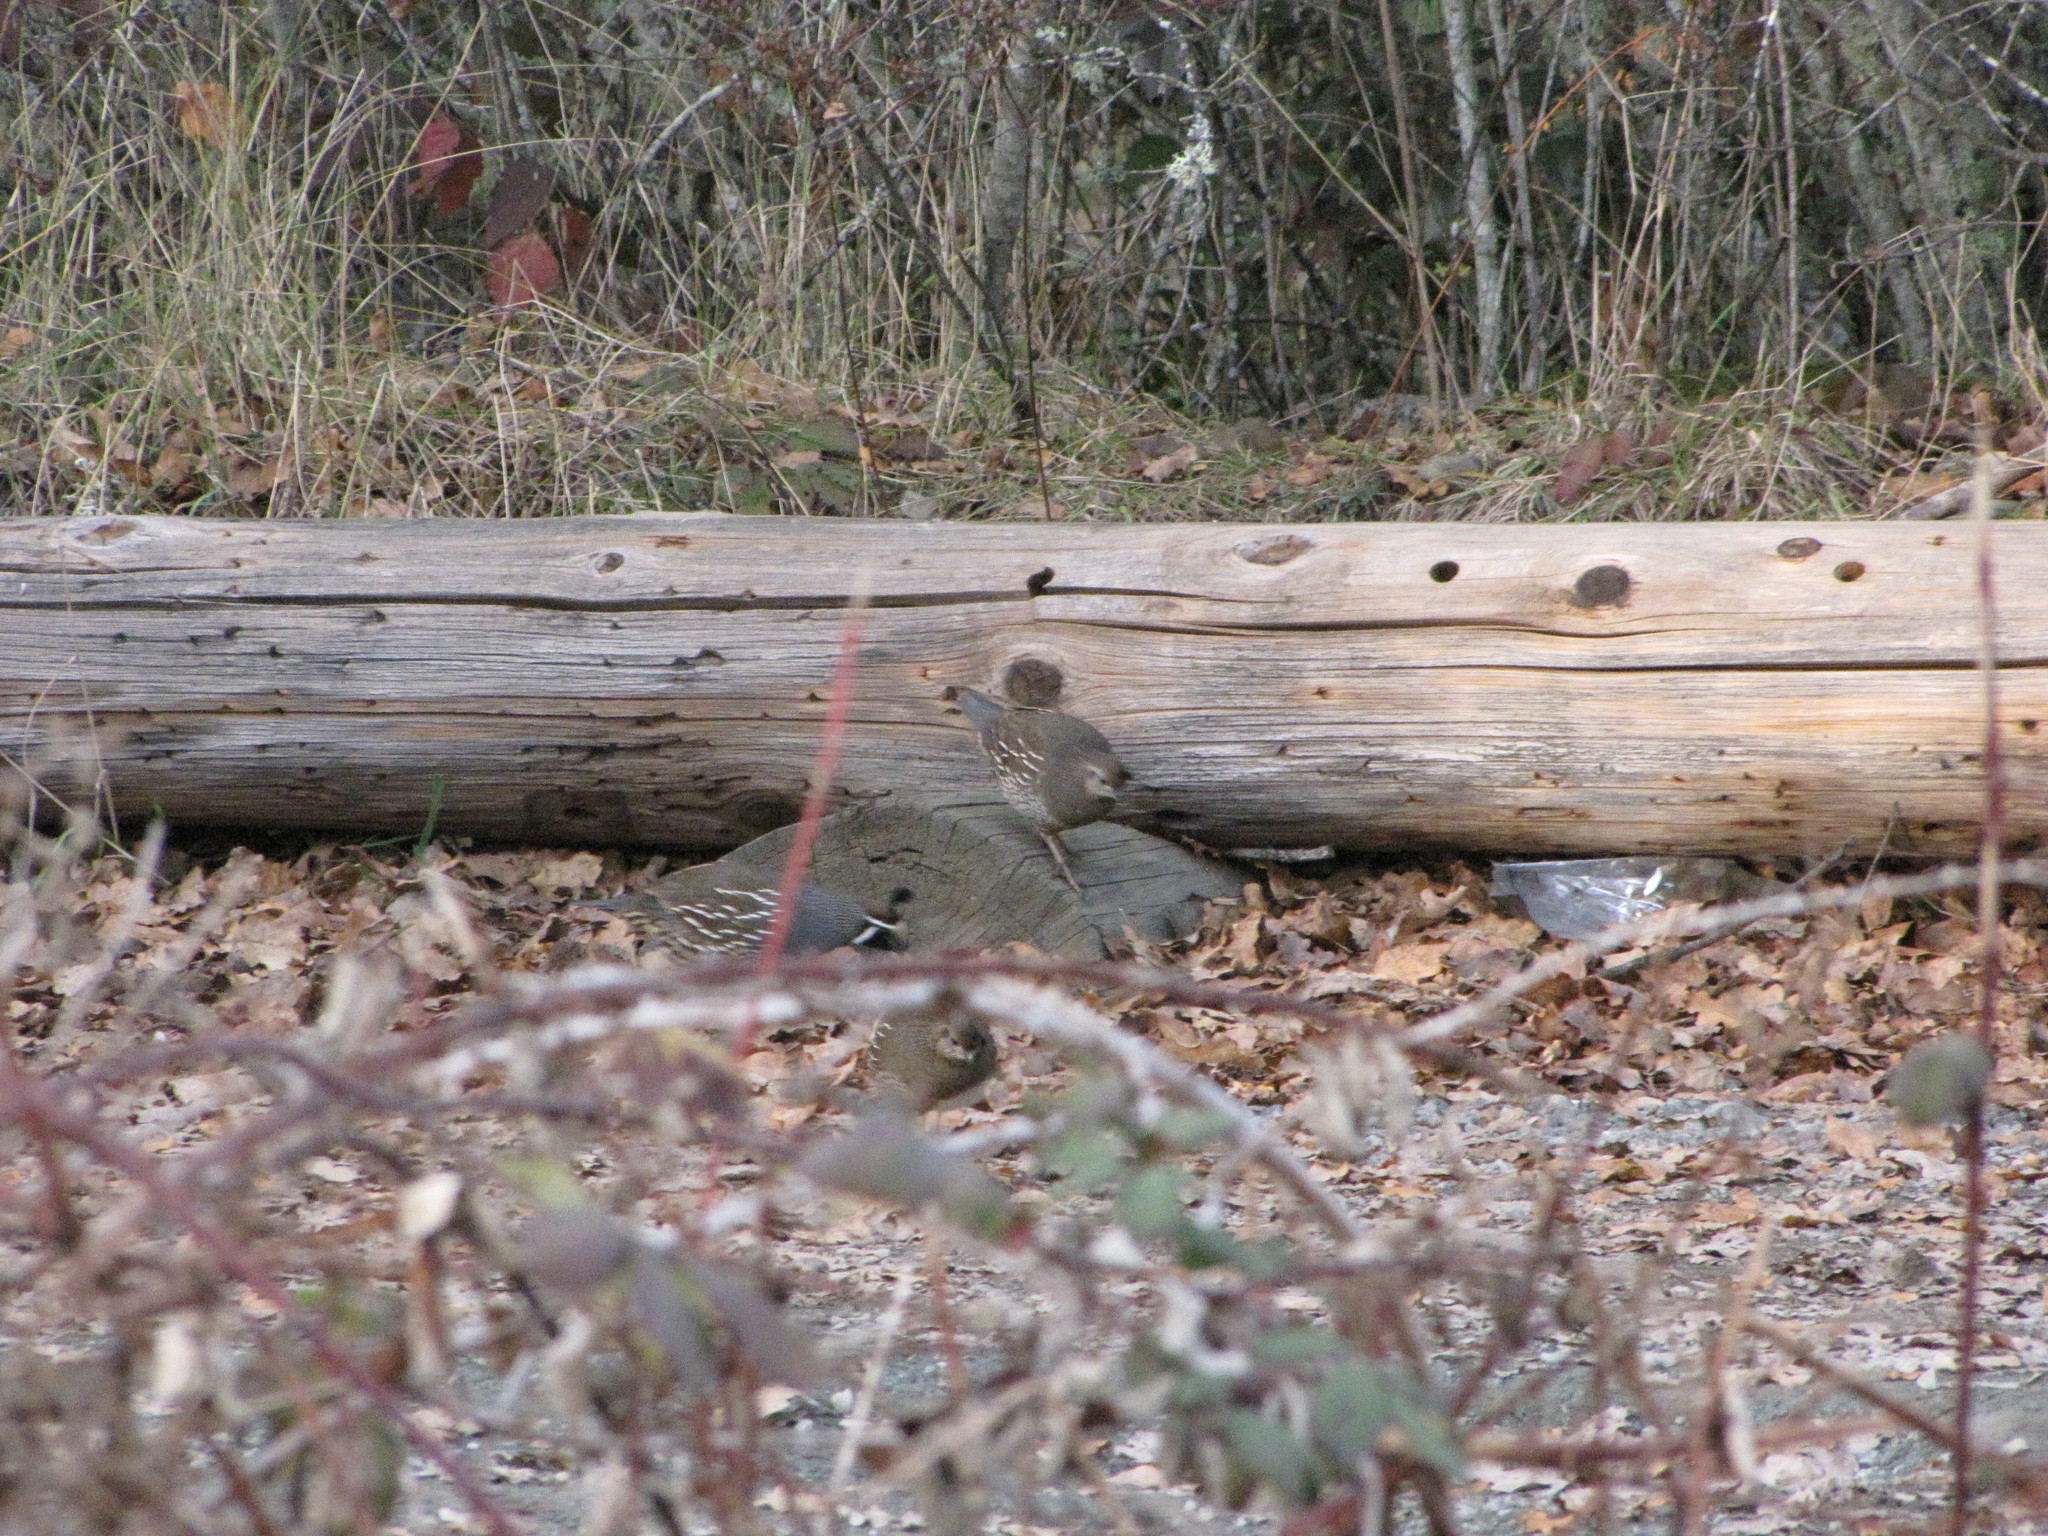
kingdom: Animalia
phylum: Chordata
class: Aves
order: Galliformes
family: Odontophoridae
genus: Callipepla
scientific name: Callipepla californica
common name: California quail
